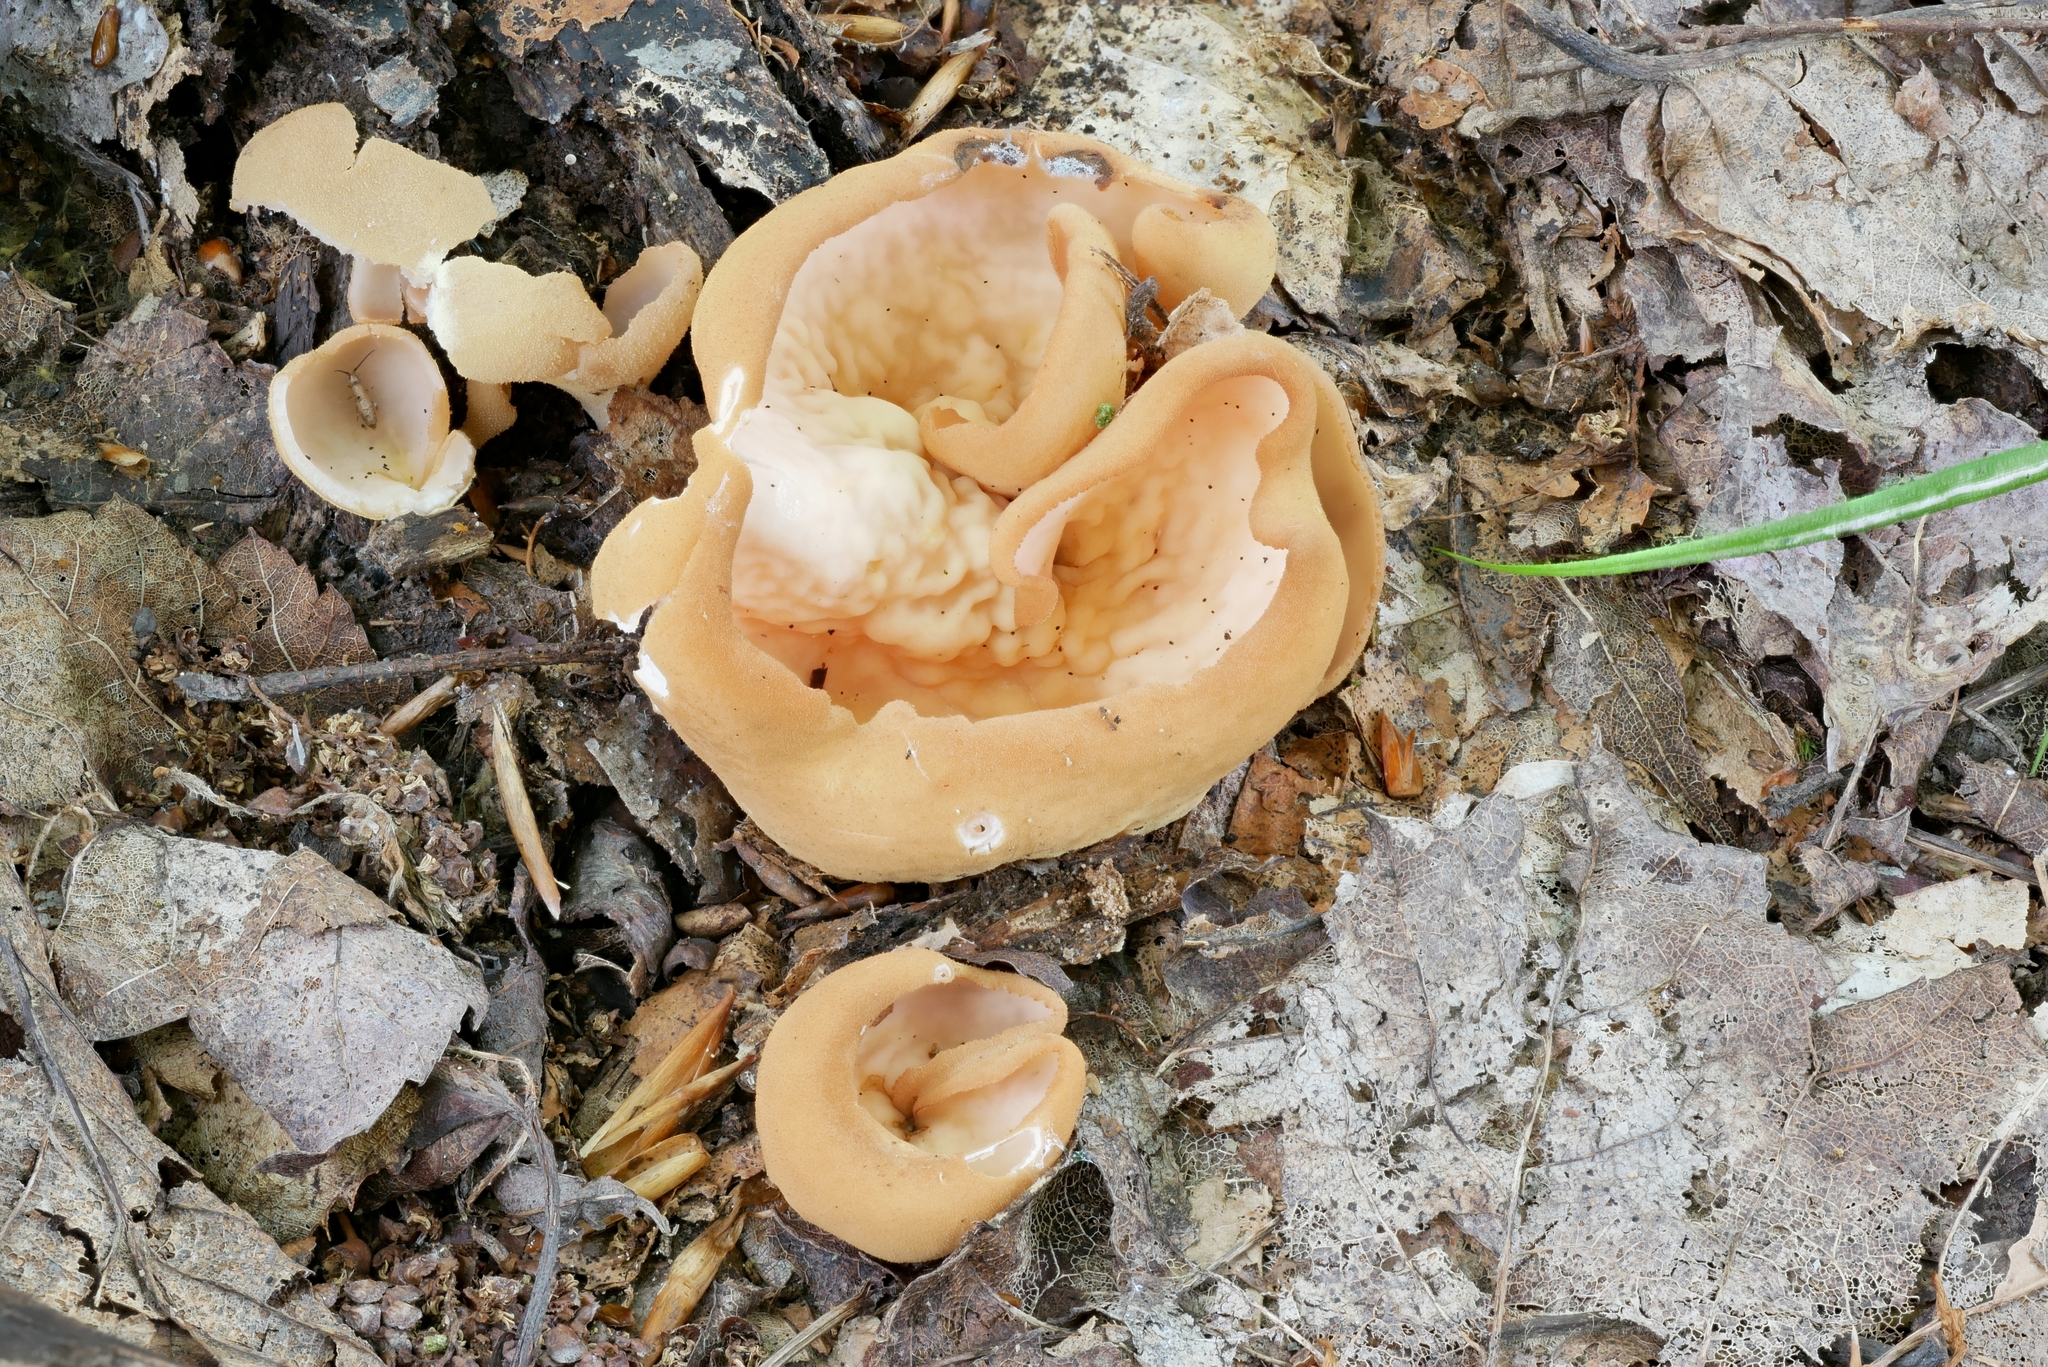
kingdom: Fungi
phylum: Ascomycota
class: Pezizomycetes
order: Pezizales
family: Pyronemataceae
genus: Sowerbyella
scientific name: Sowerbyella unicisa
